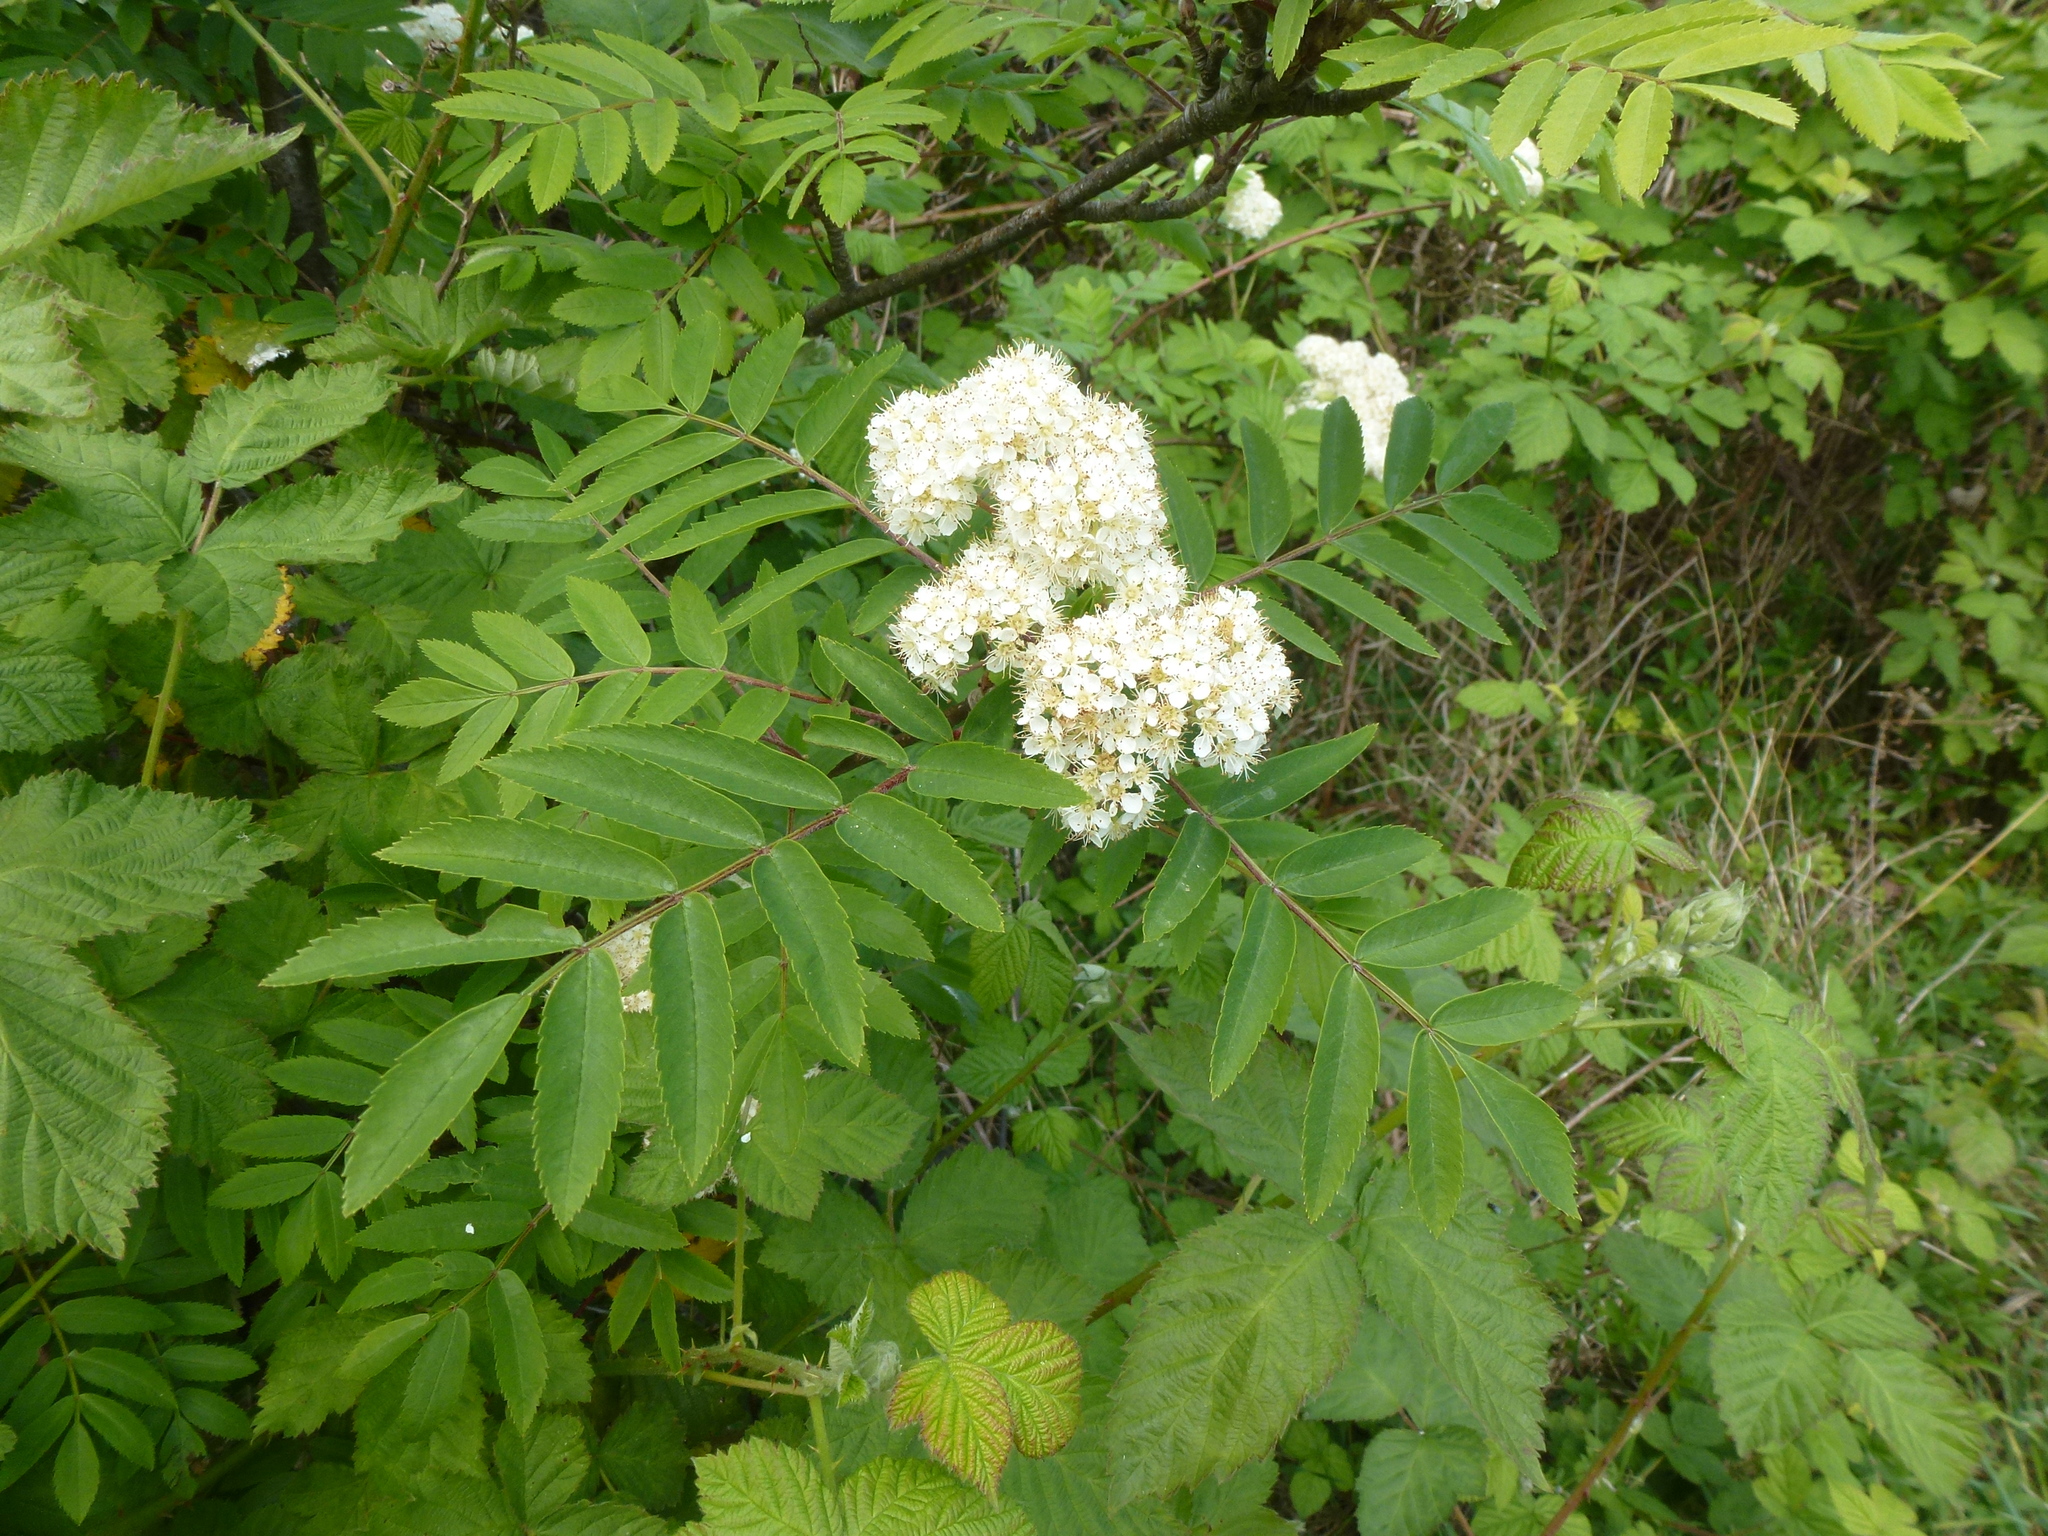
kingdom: Plantae
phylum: Tracheophyta
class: Magnoliopsida
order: Rosales
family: Rosaceae
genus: Sorbus
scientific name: Sorbus aucuparia
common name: Rowan
